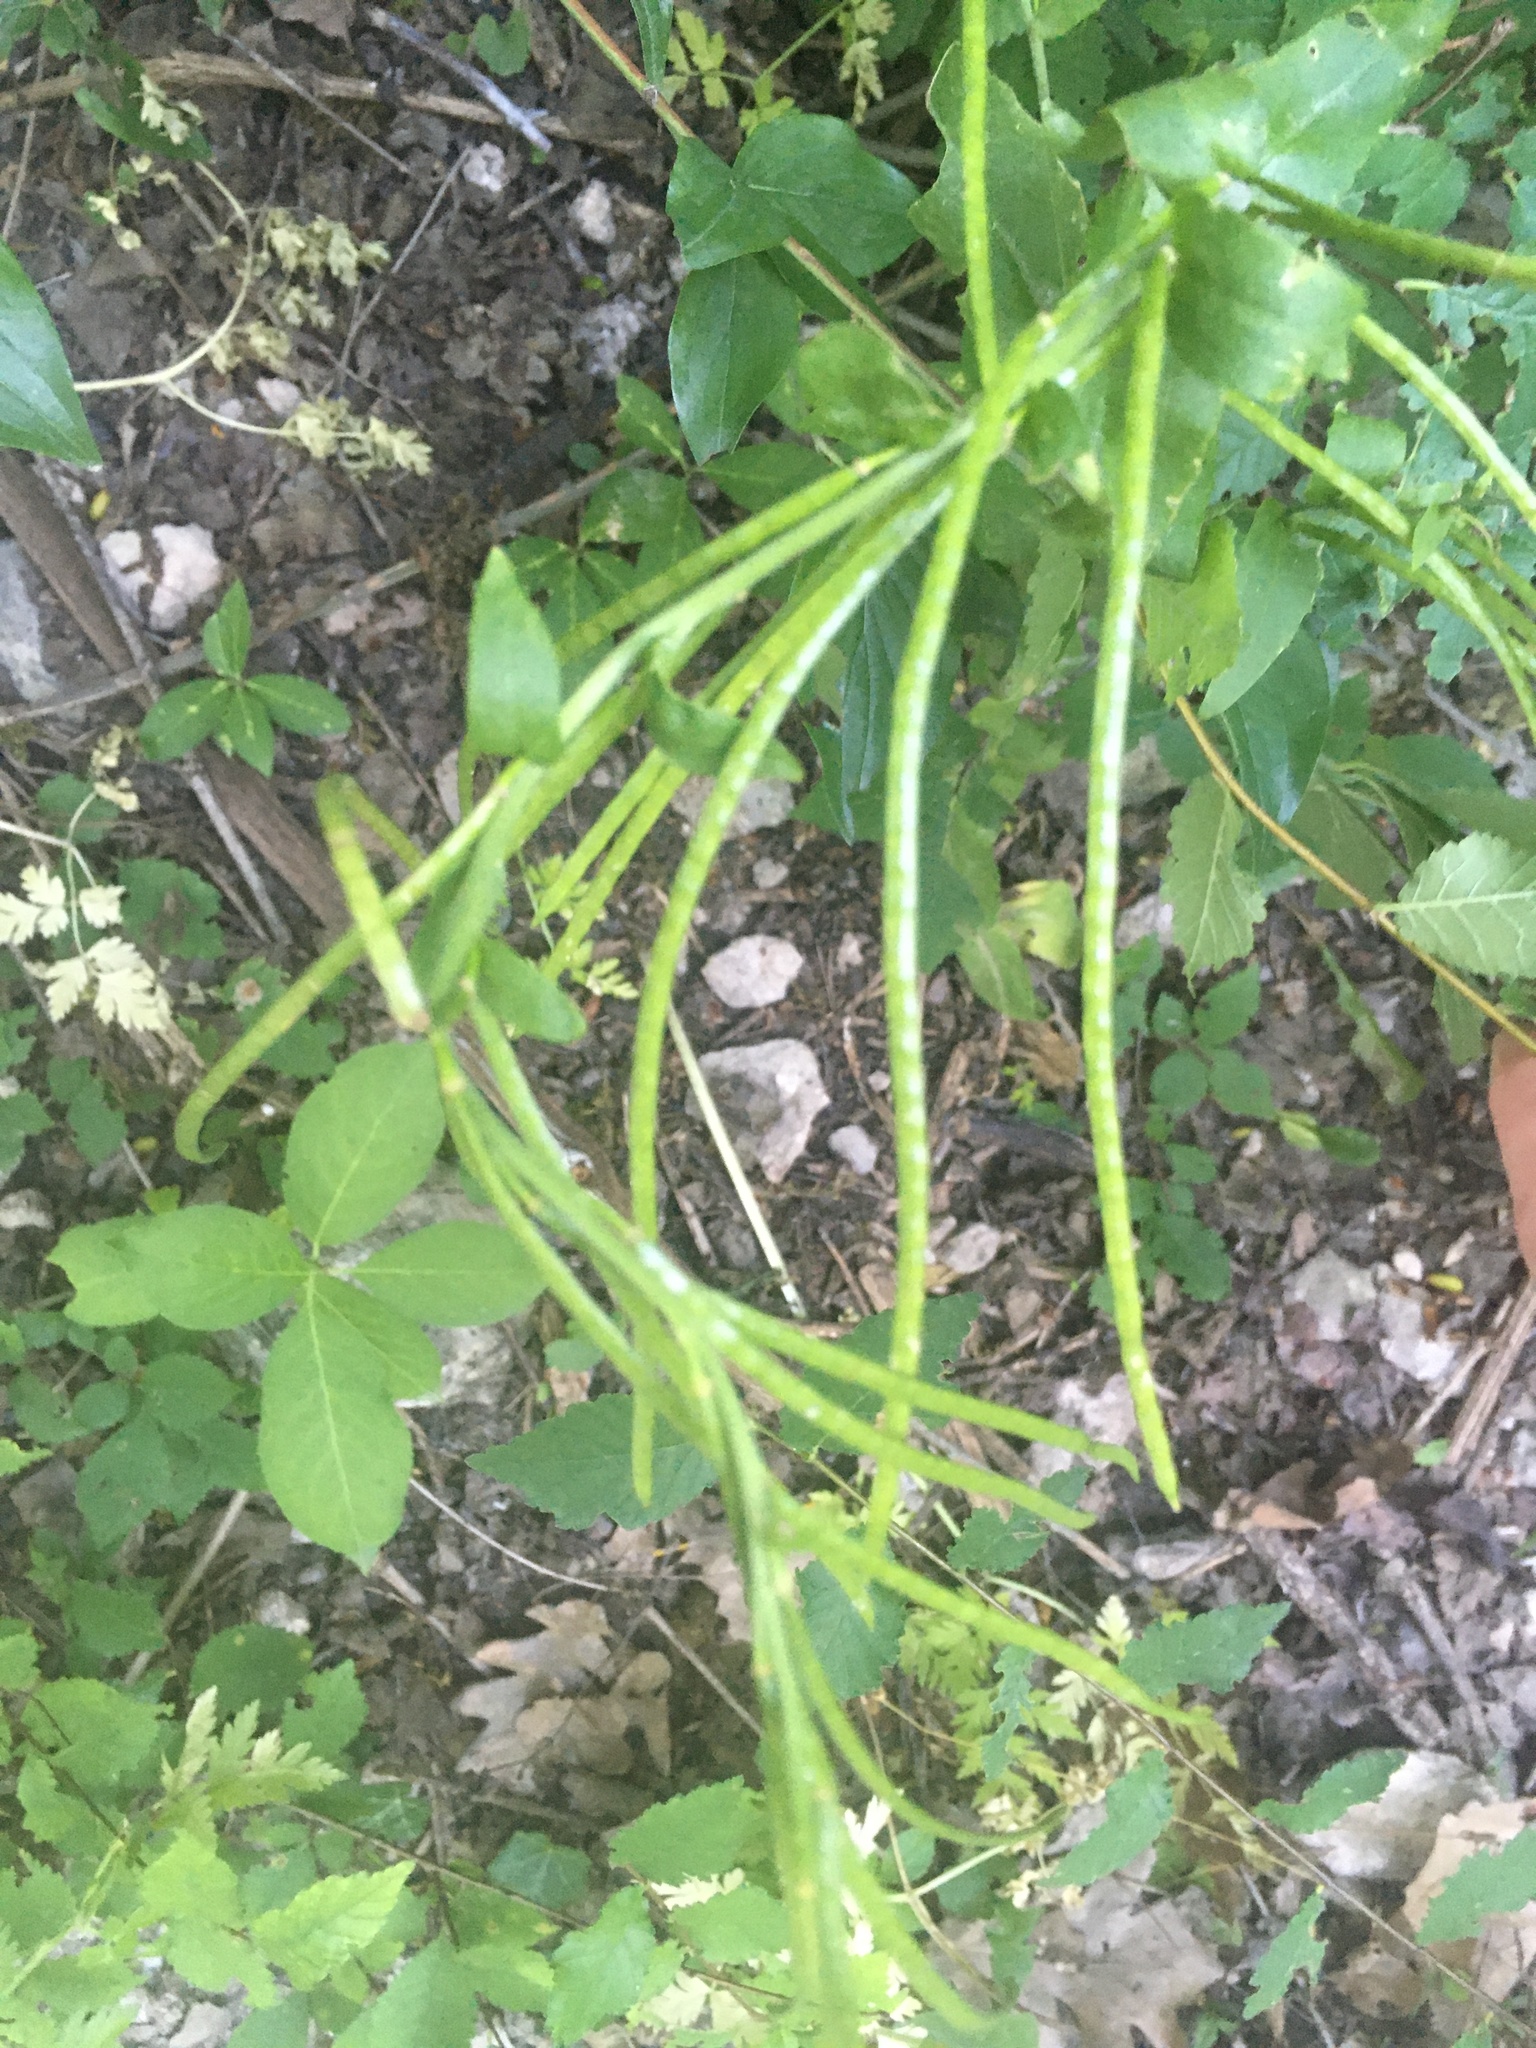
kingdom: Plantae
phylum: Tracheophyta
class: Magnoliopsida
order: Brassicales
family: Brassicaceae
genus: Brassica
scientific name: Brassica napus
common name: Rape
